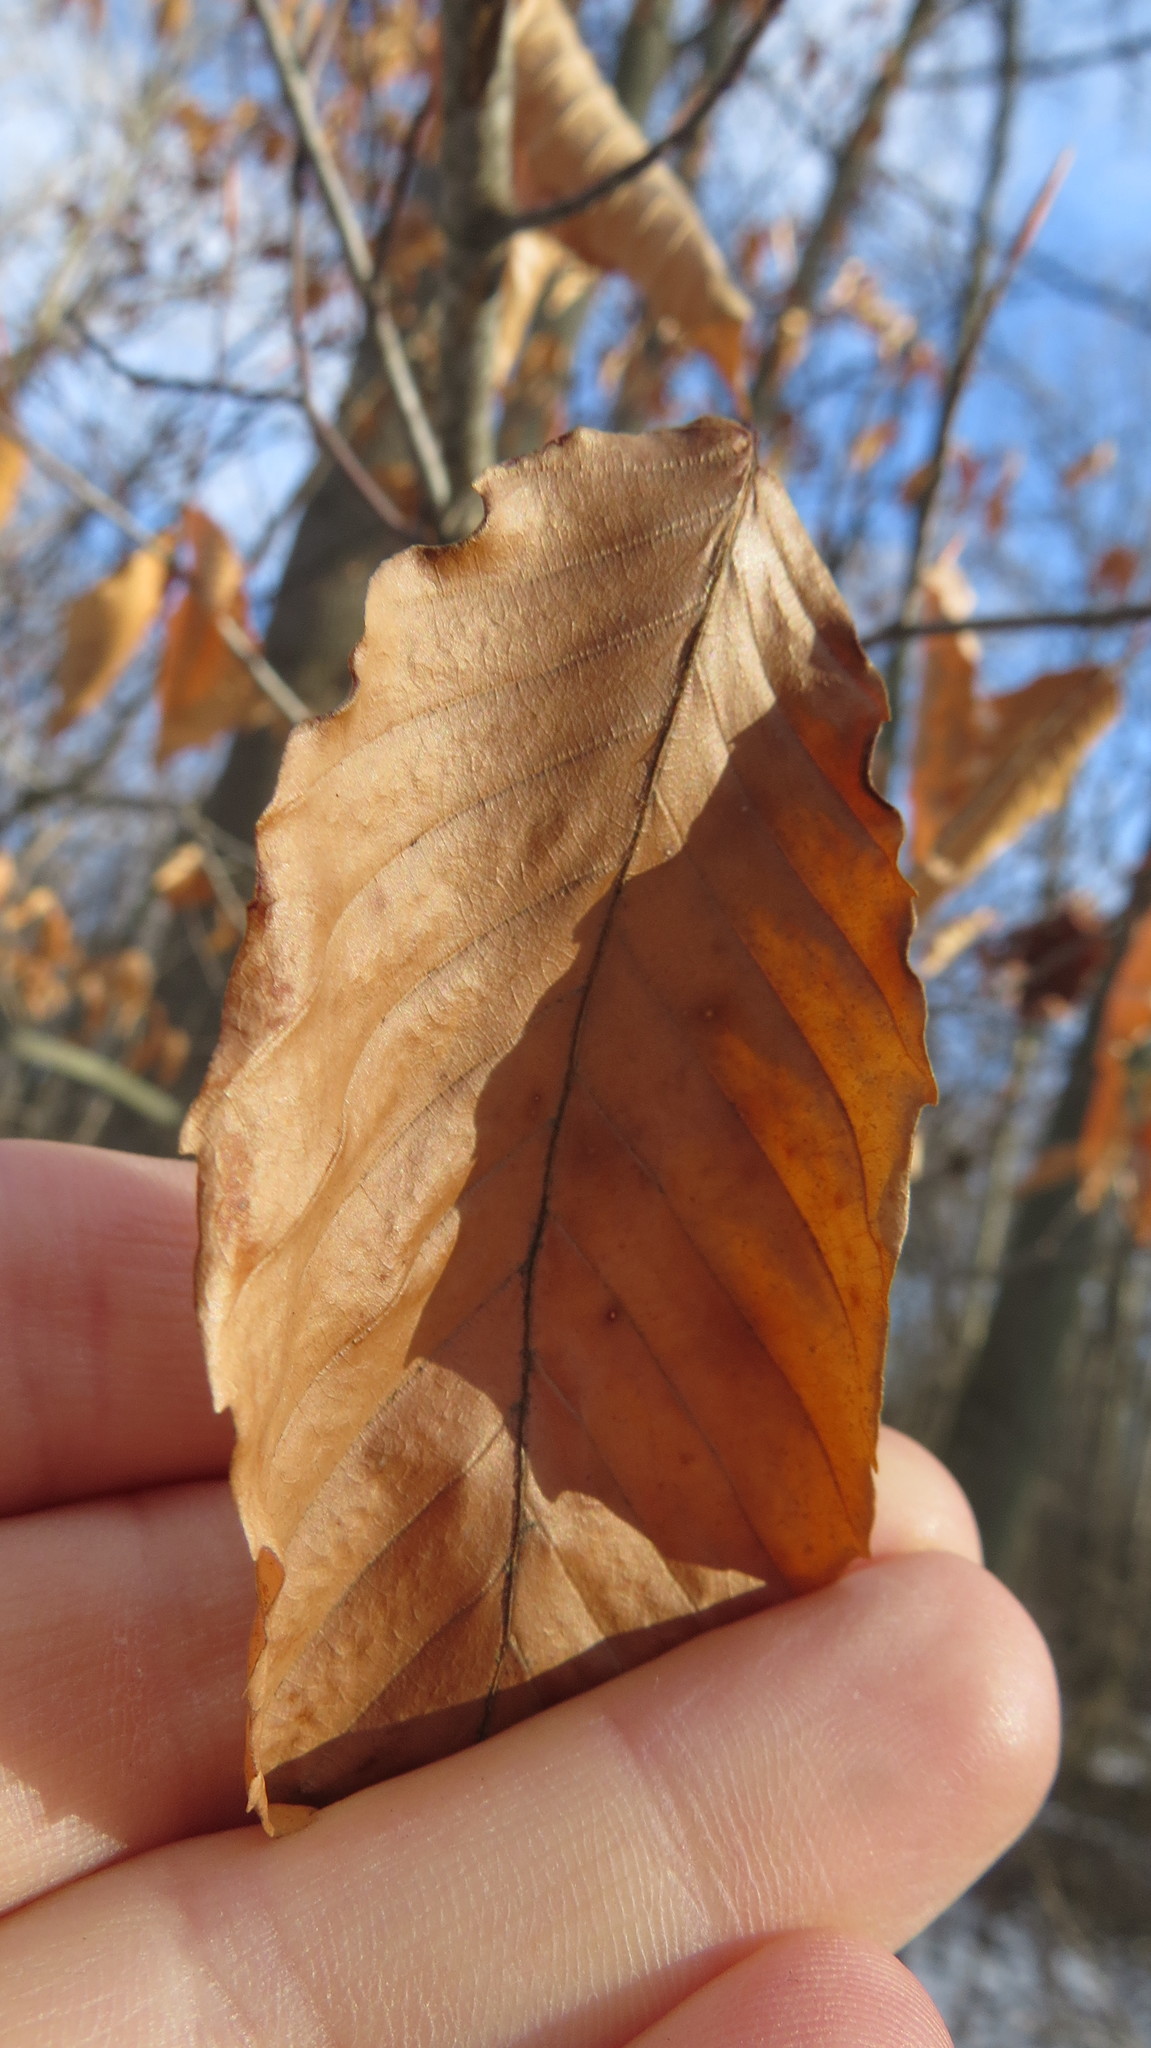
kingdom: Plantae
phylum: Tracheophyta
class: Magnoliopsida
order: Fagales
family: Fagaceae
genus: Fagus
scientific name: Fagus grandifolia
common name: American beech
